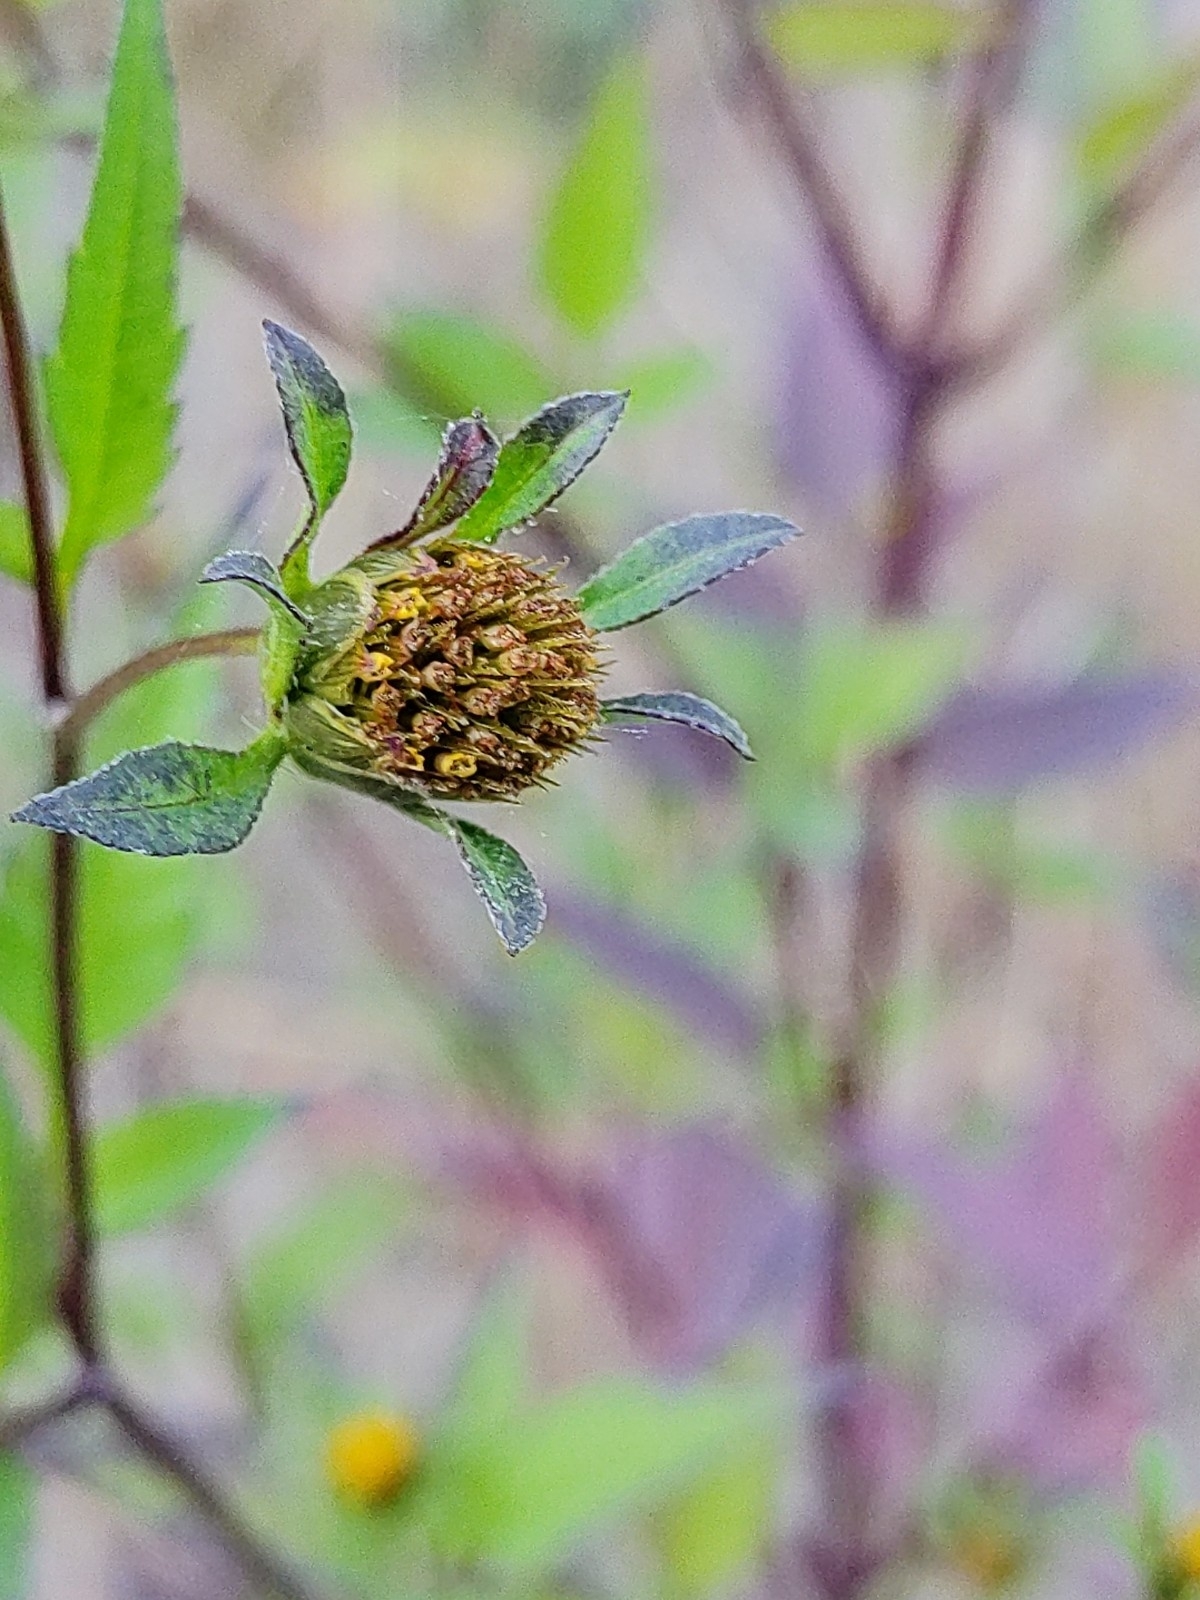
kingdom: Plantae
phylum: Tracheophyta
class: Magnoliopsida
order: Asterales
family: Asteraceae
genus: Bidens
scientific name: Bidens frondosa
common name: Beggarticks
